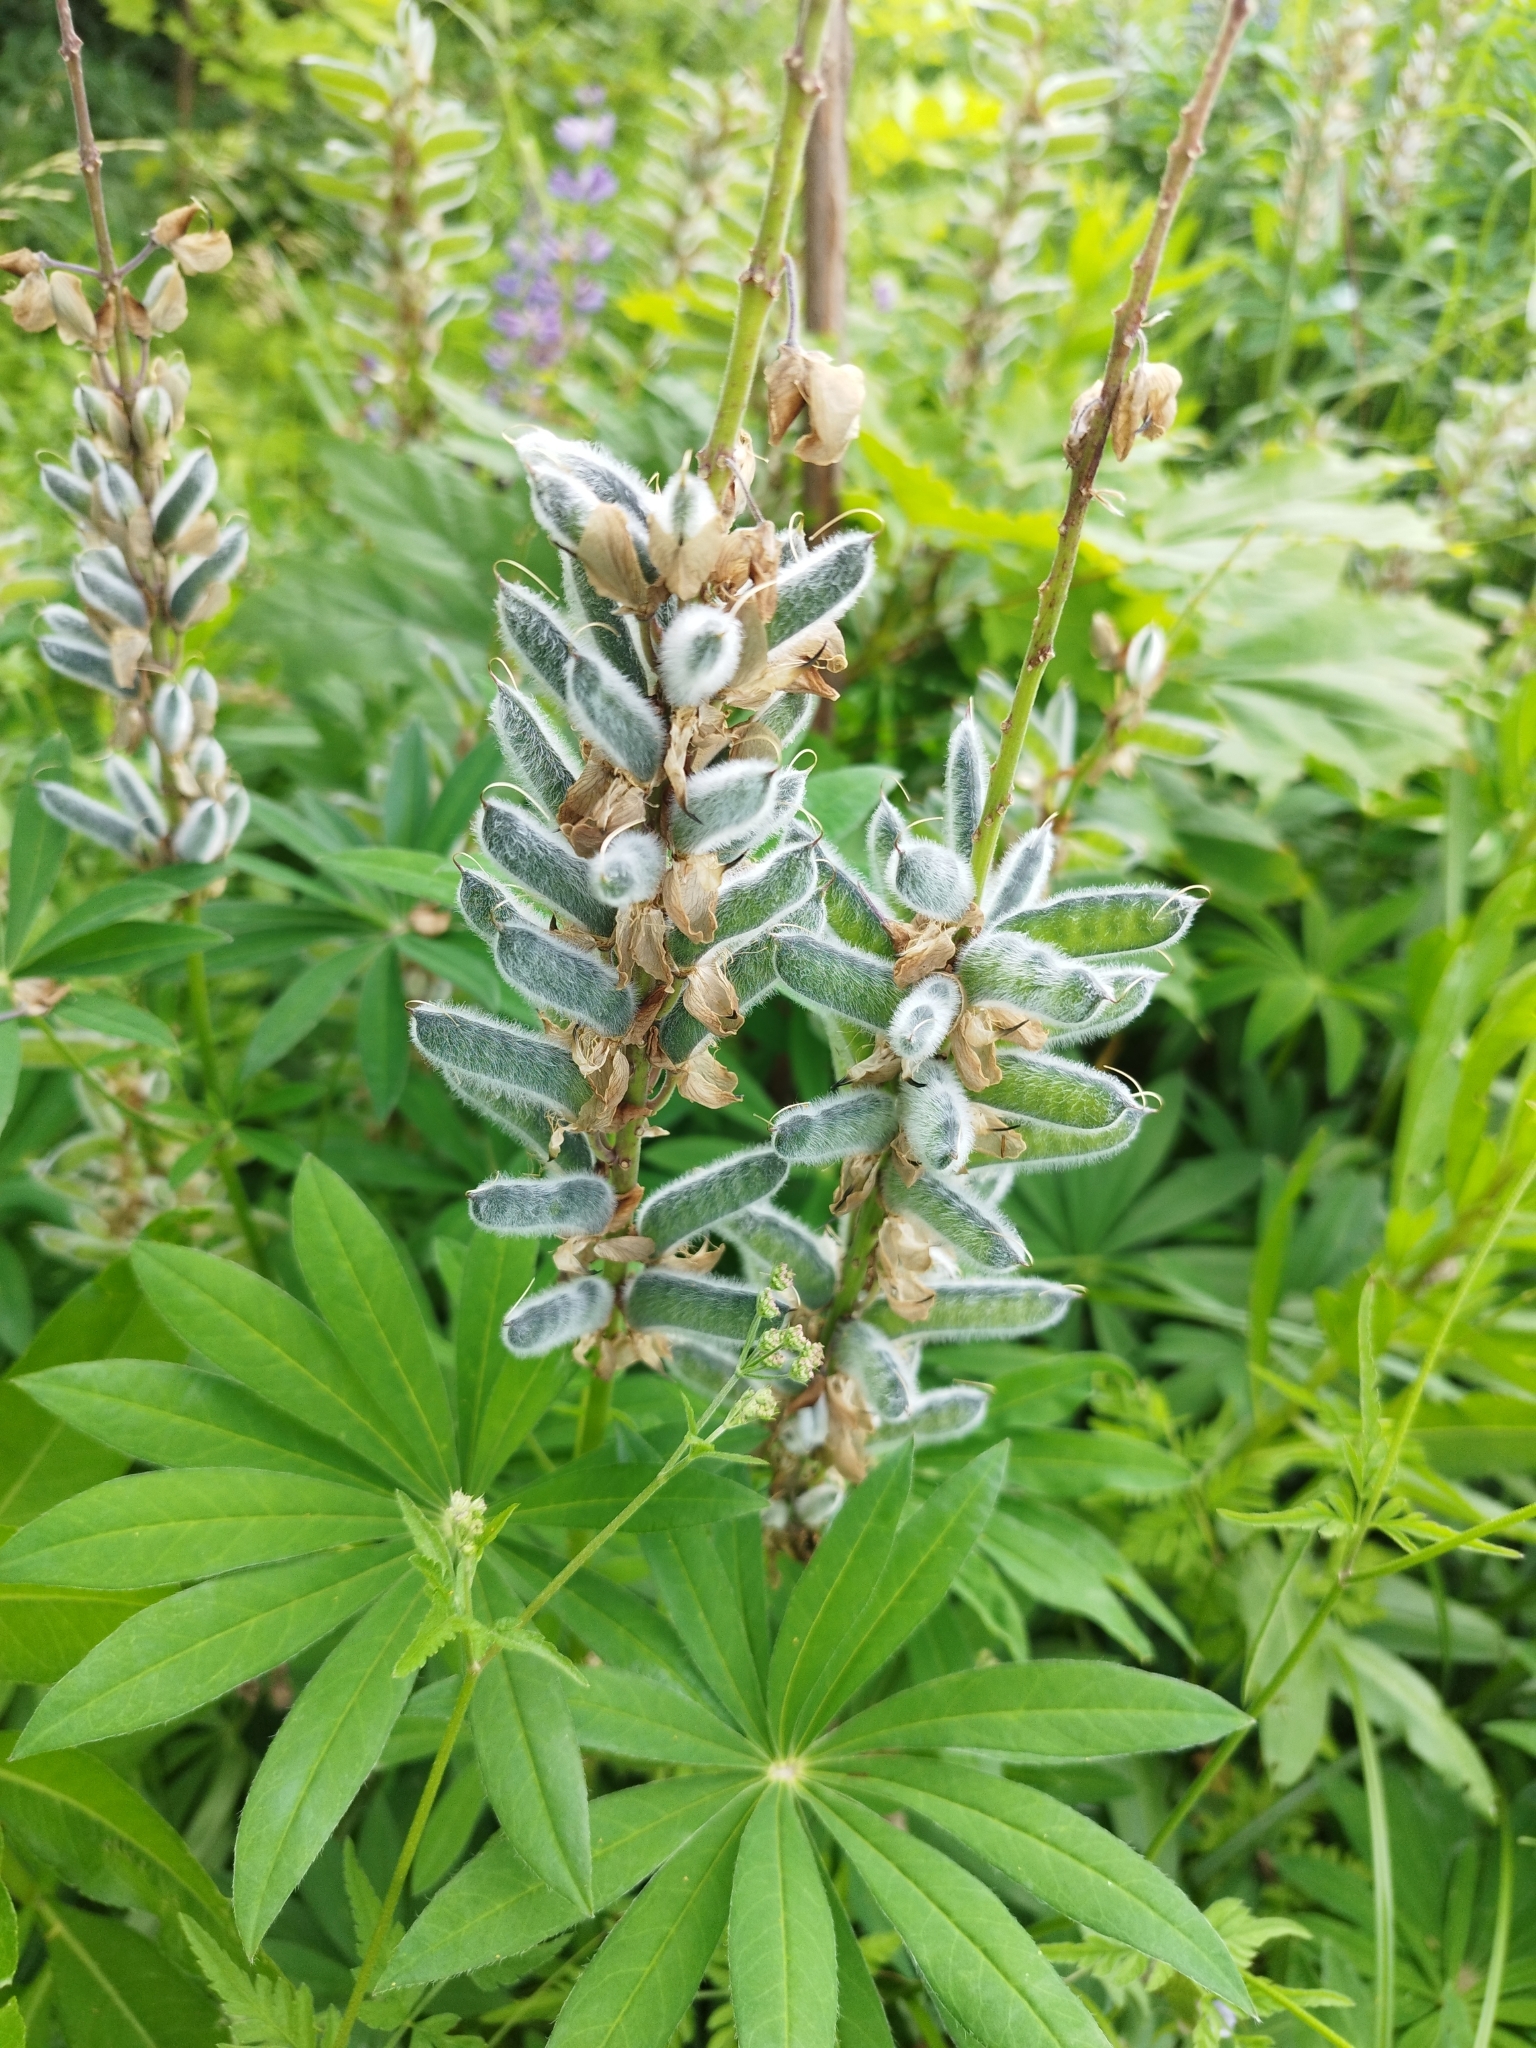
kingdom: Plantae
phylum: Tracheophyta
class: Magnoliopsida
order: Fabales
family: Fabaceae
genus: Lupinus
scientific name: Lupinus polyphyllus
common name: Garden lupin
